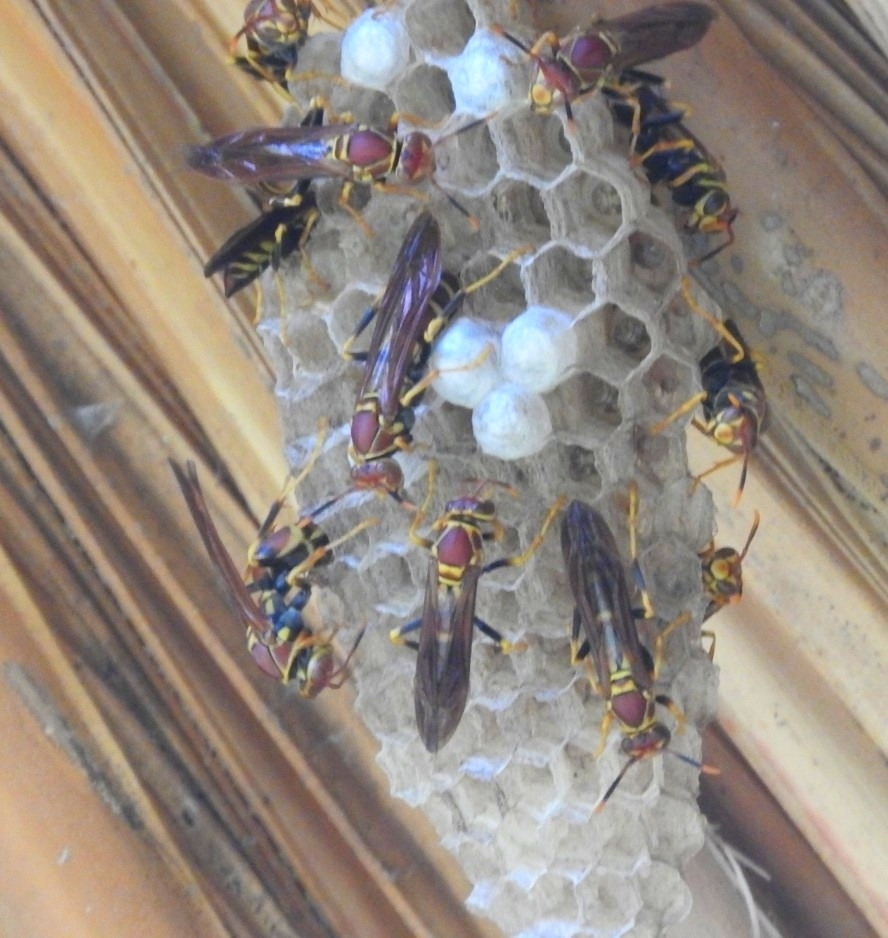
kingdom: Animalia
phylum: Arthropoda
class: Insecta
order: Hymenoptera
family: Eumenidae
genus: Polistes
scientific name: Polistes instabilis
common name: Unstable paper wasp
